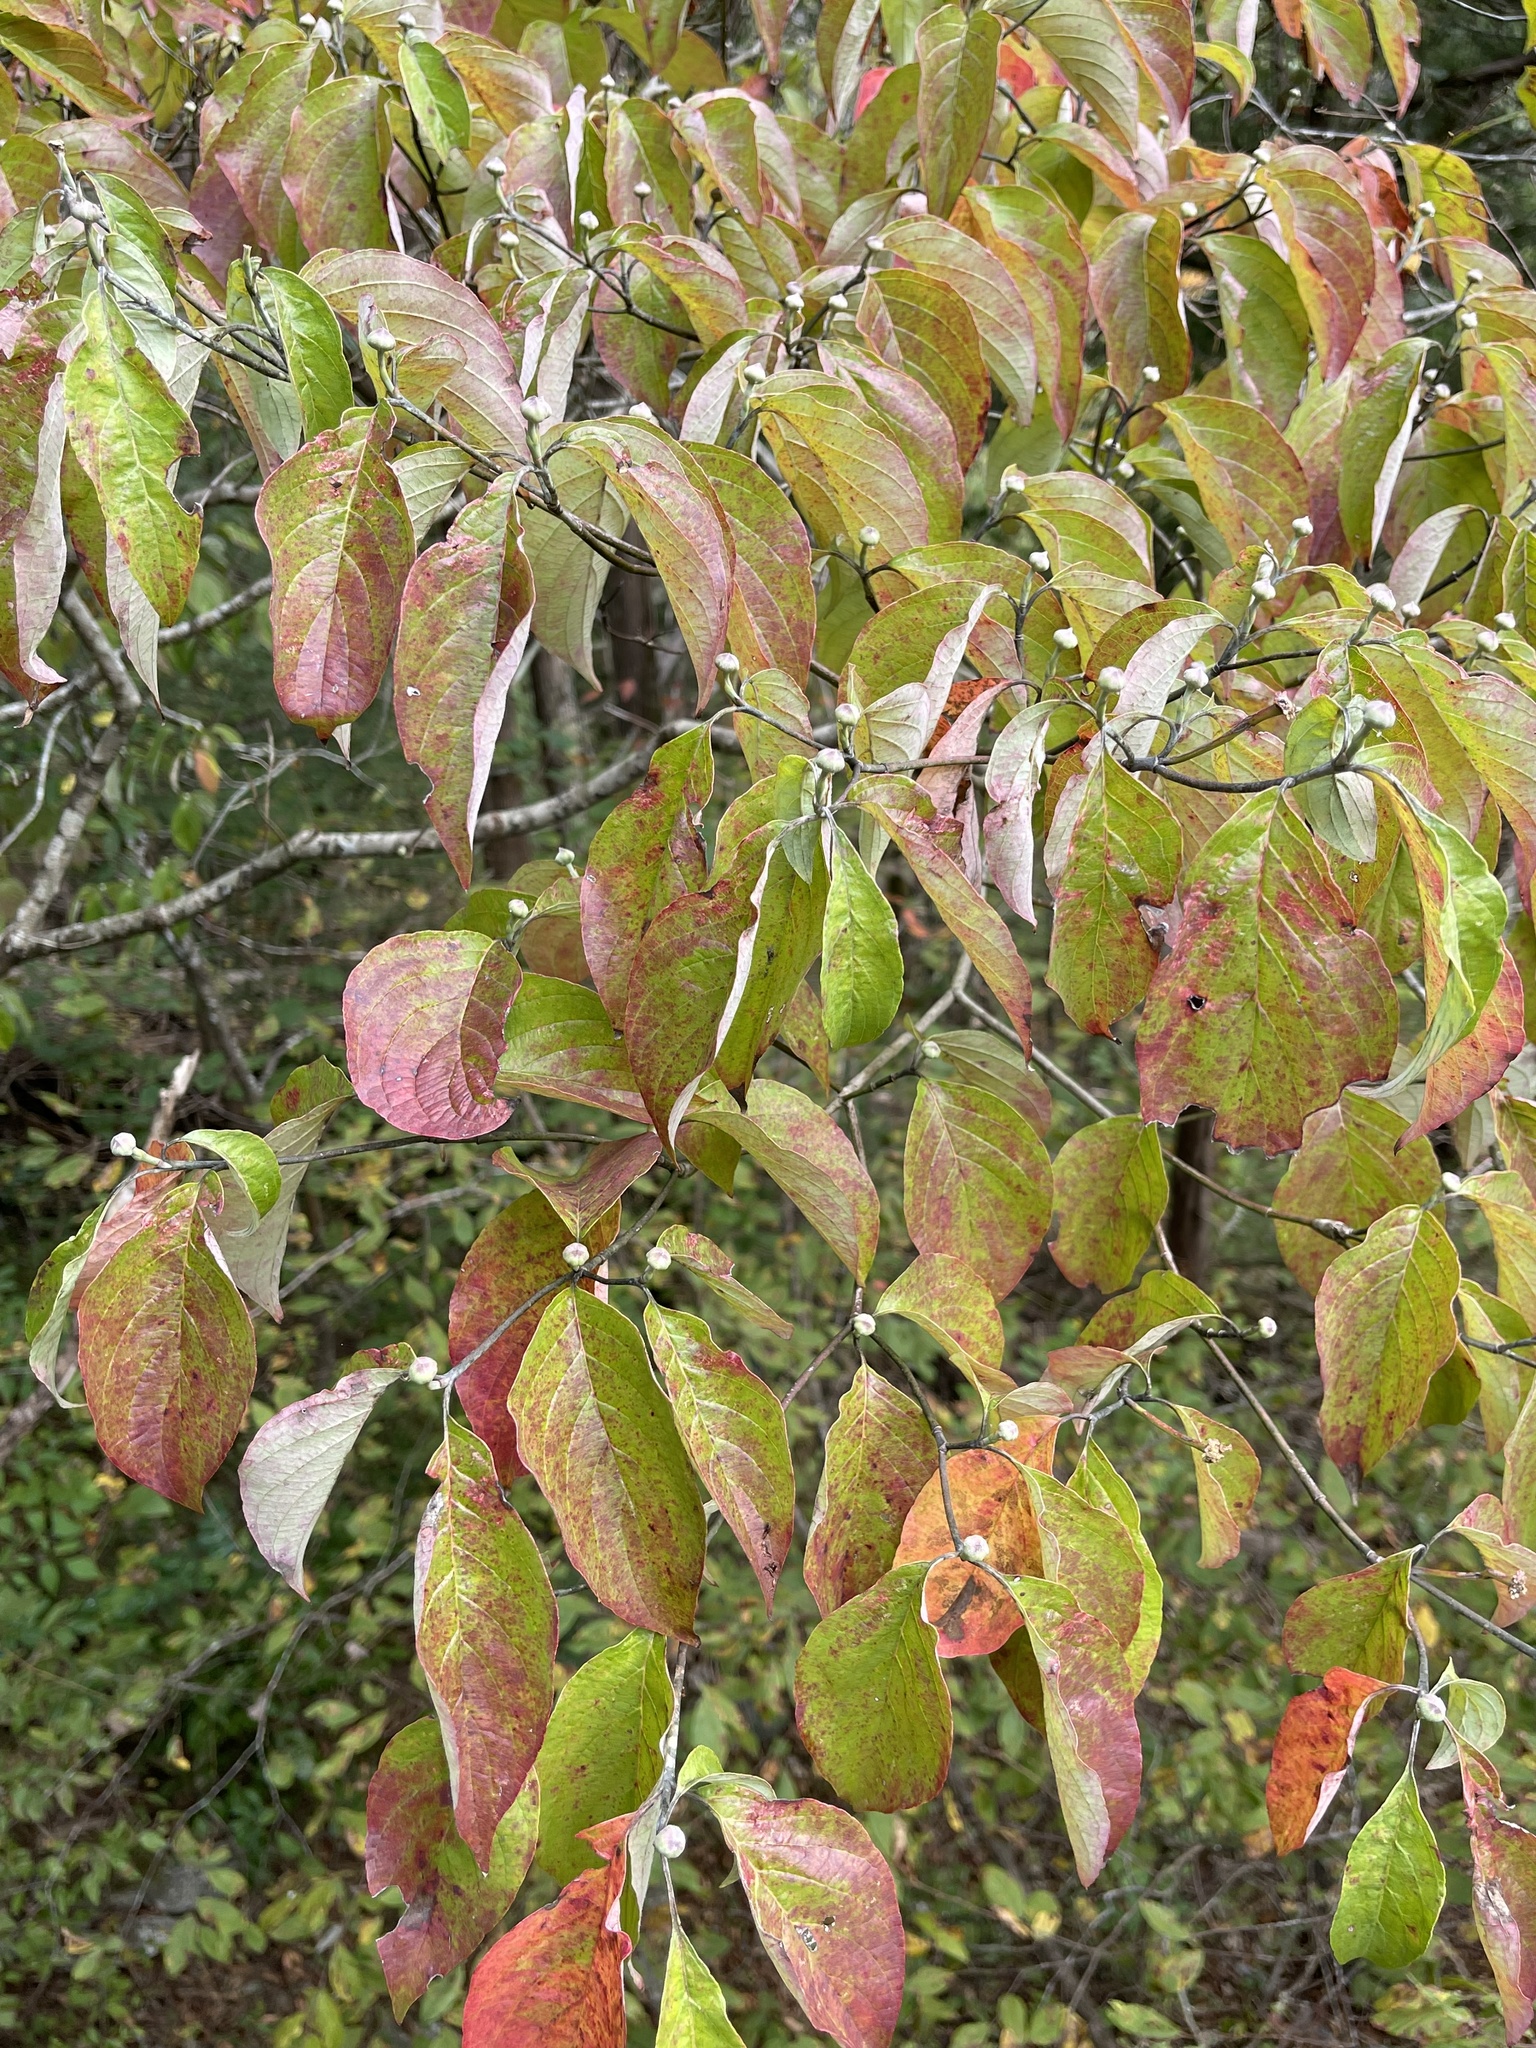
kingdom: Plantae
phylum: Tracheophyta
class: Magnoliopsida
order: Cornales
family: Cornaceae
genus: Cornus
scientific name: Cornus florida
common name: Flowering dogwood
